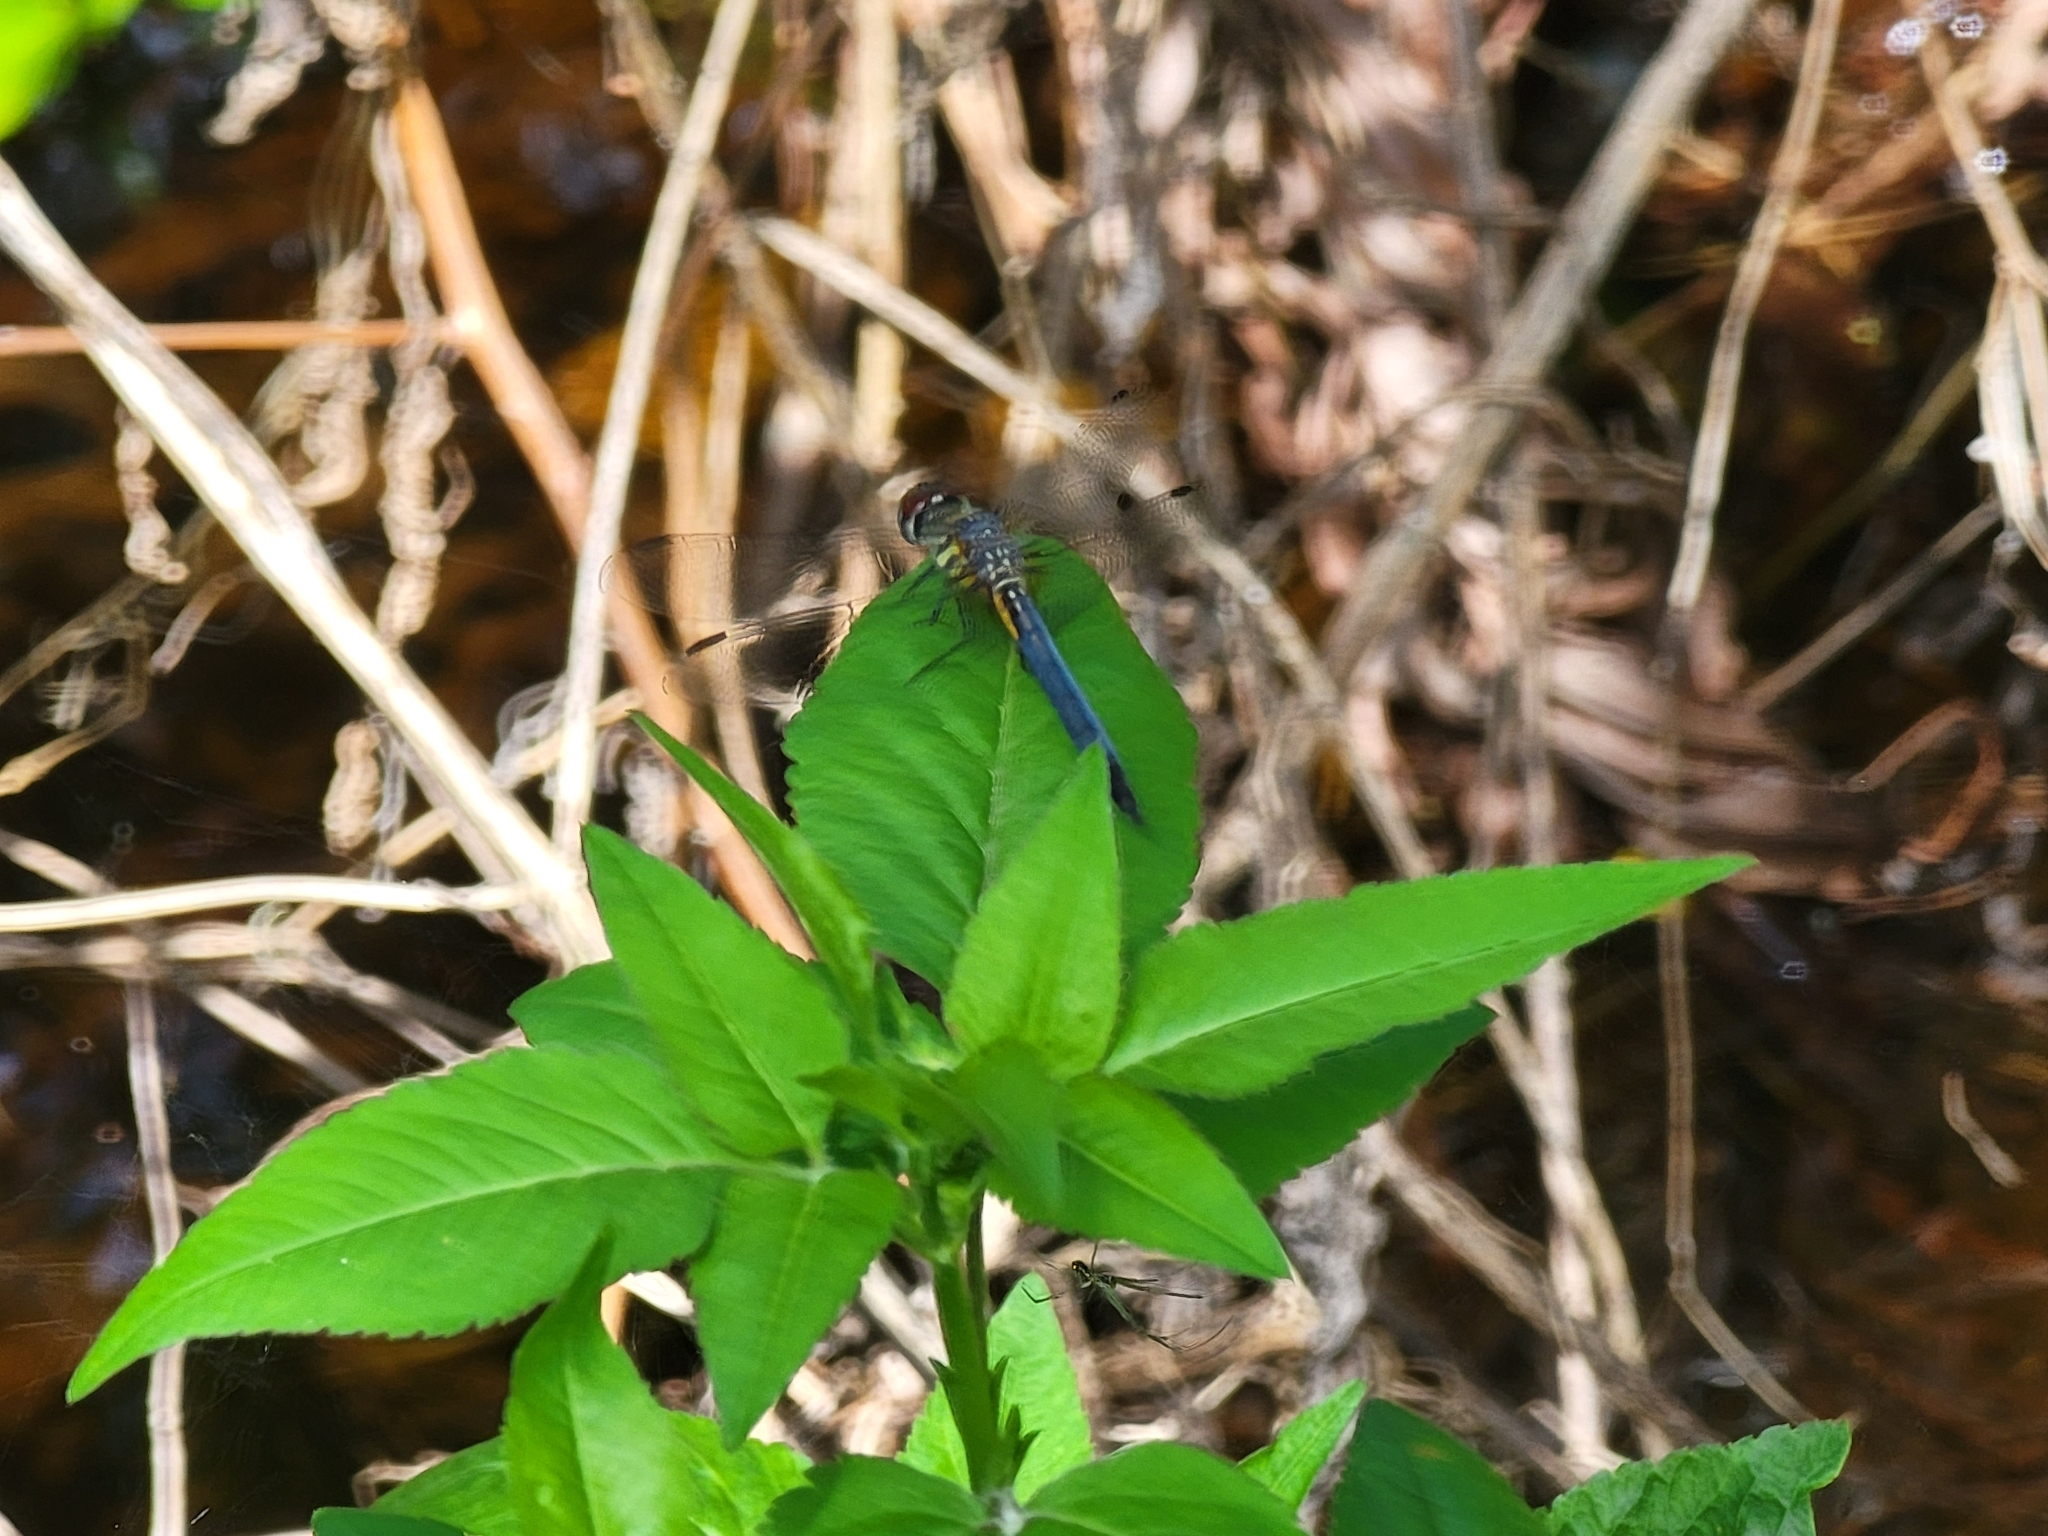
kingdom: Animalia
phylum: Arthropoda
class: Insecta
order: Odonata
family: Libellulidae
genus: Pachydiplax
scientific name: Pachydiplax longipennis
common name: Blue dasher
